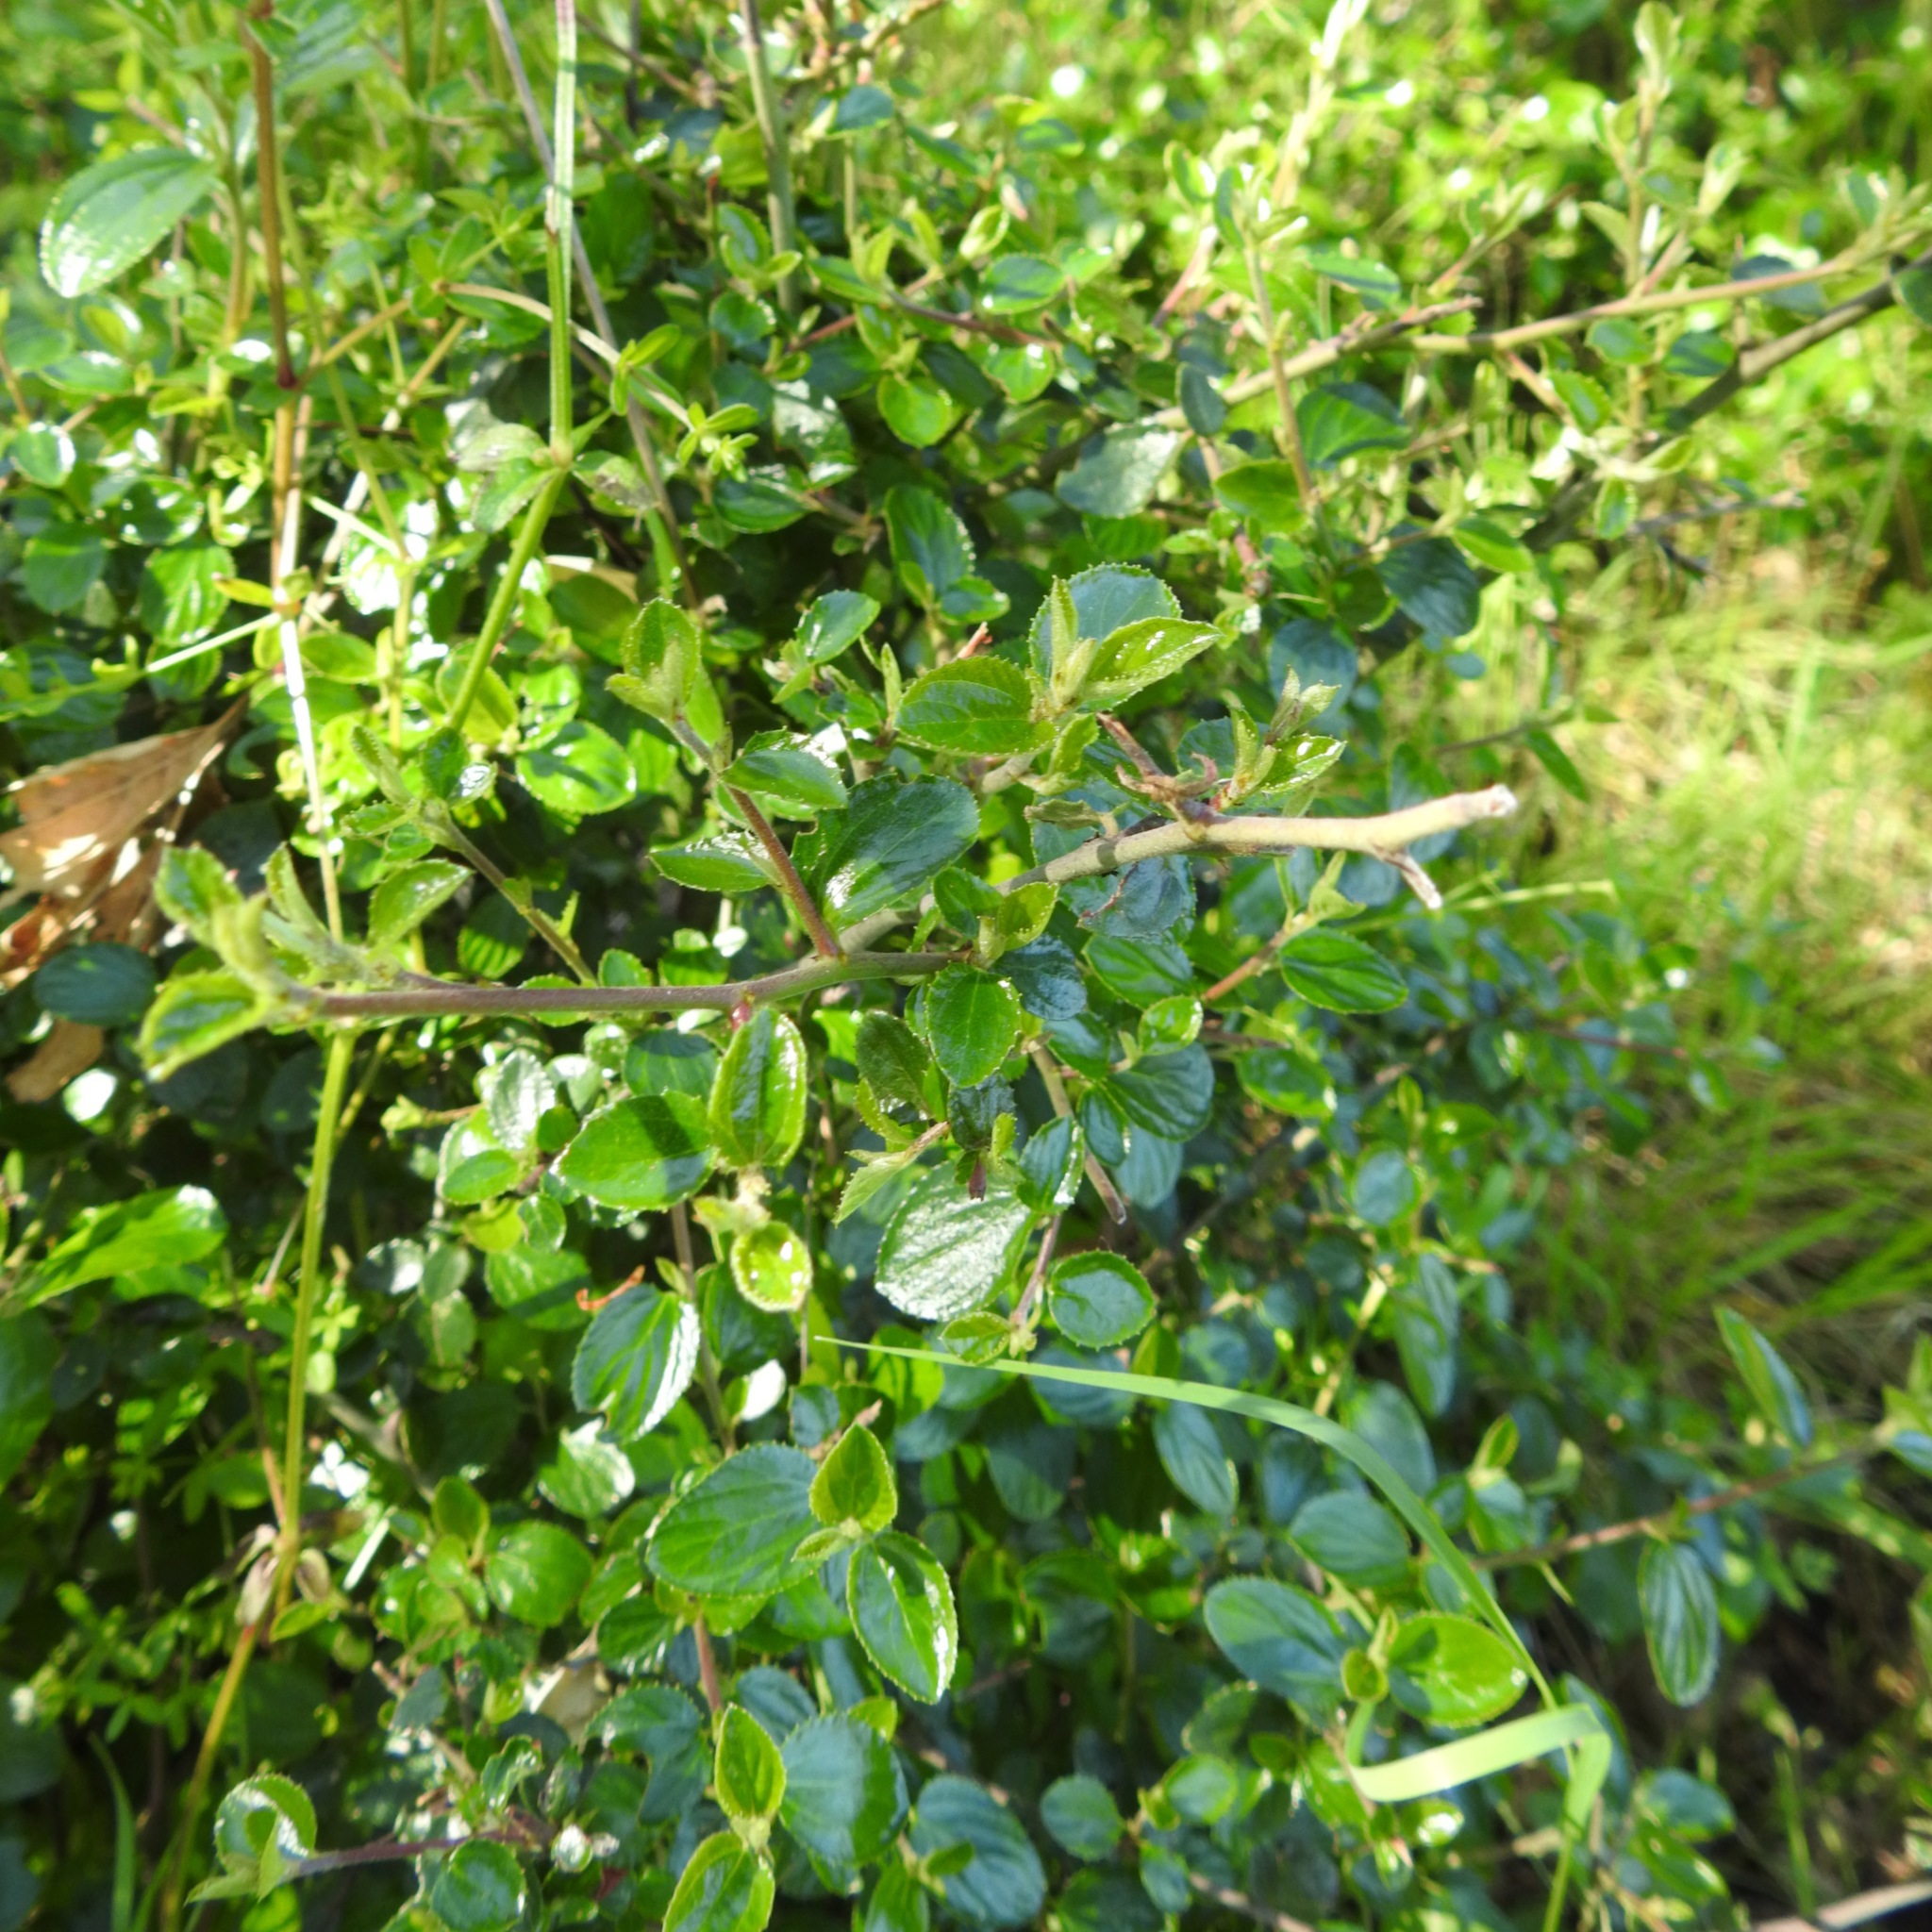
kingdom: Plantae
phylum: Tracheophyta
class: Magnoliopsida
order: Rosales
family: Rhamnaceae
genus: Ceanothus
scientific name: Ceanothus sorediatus
